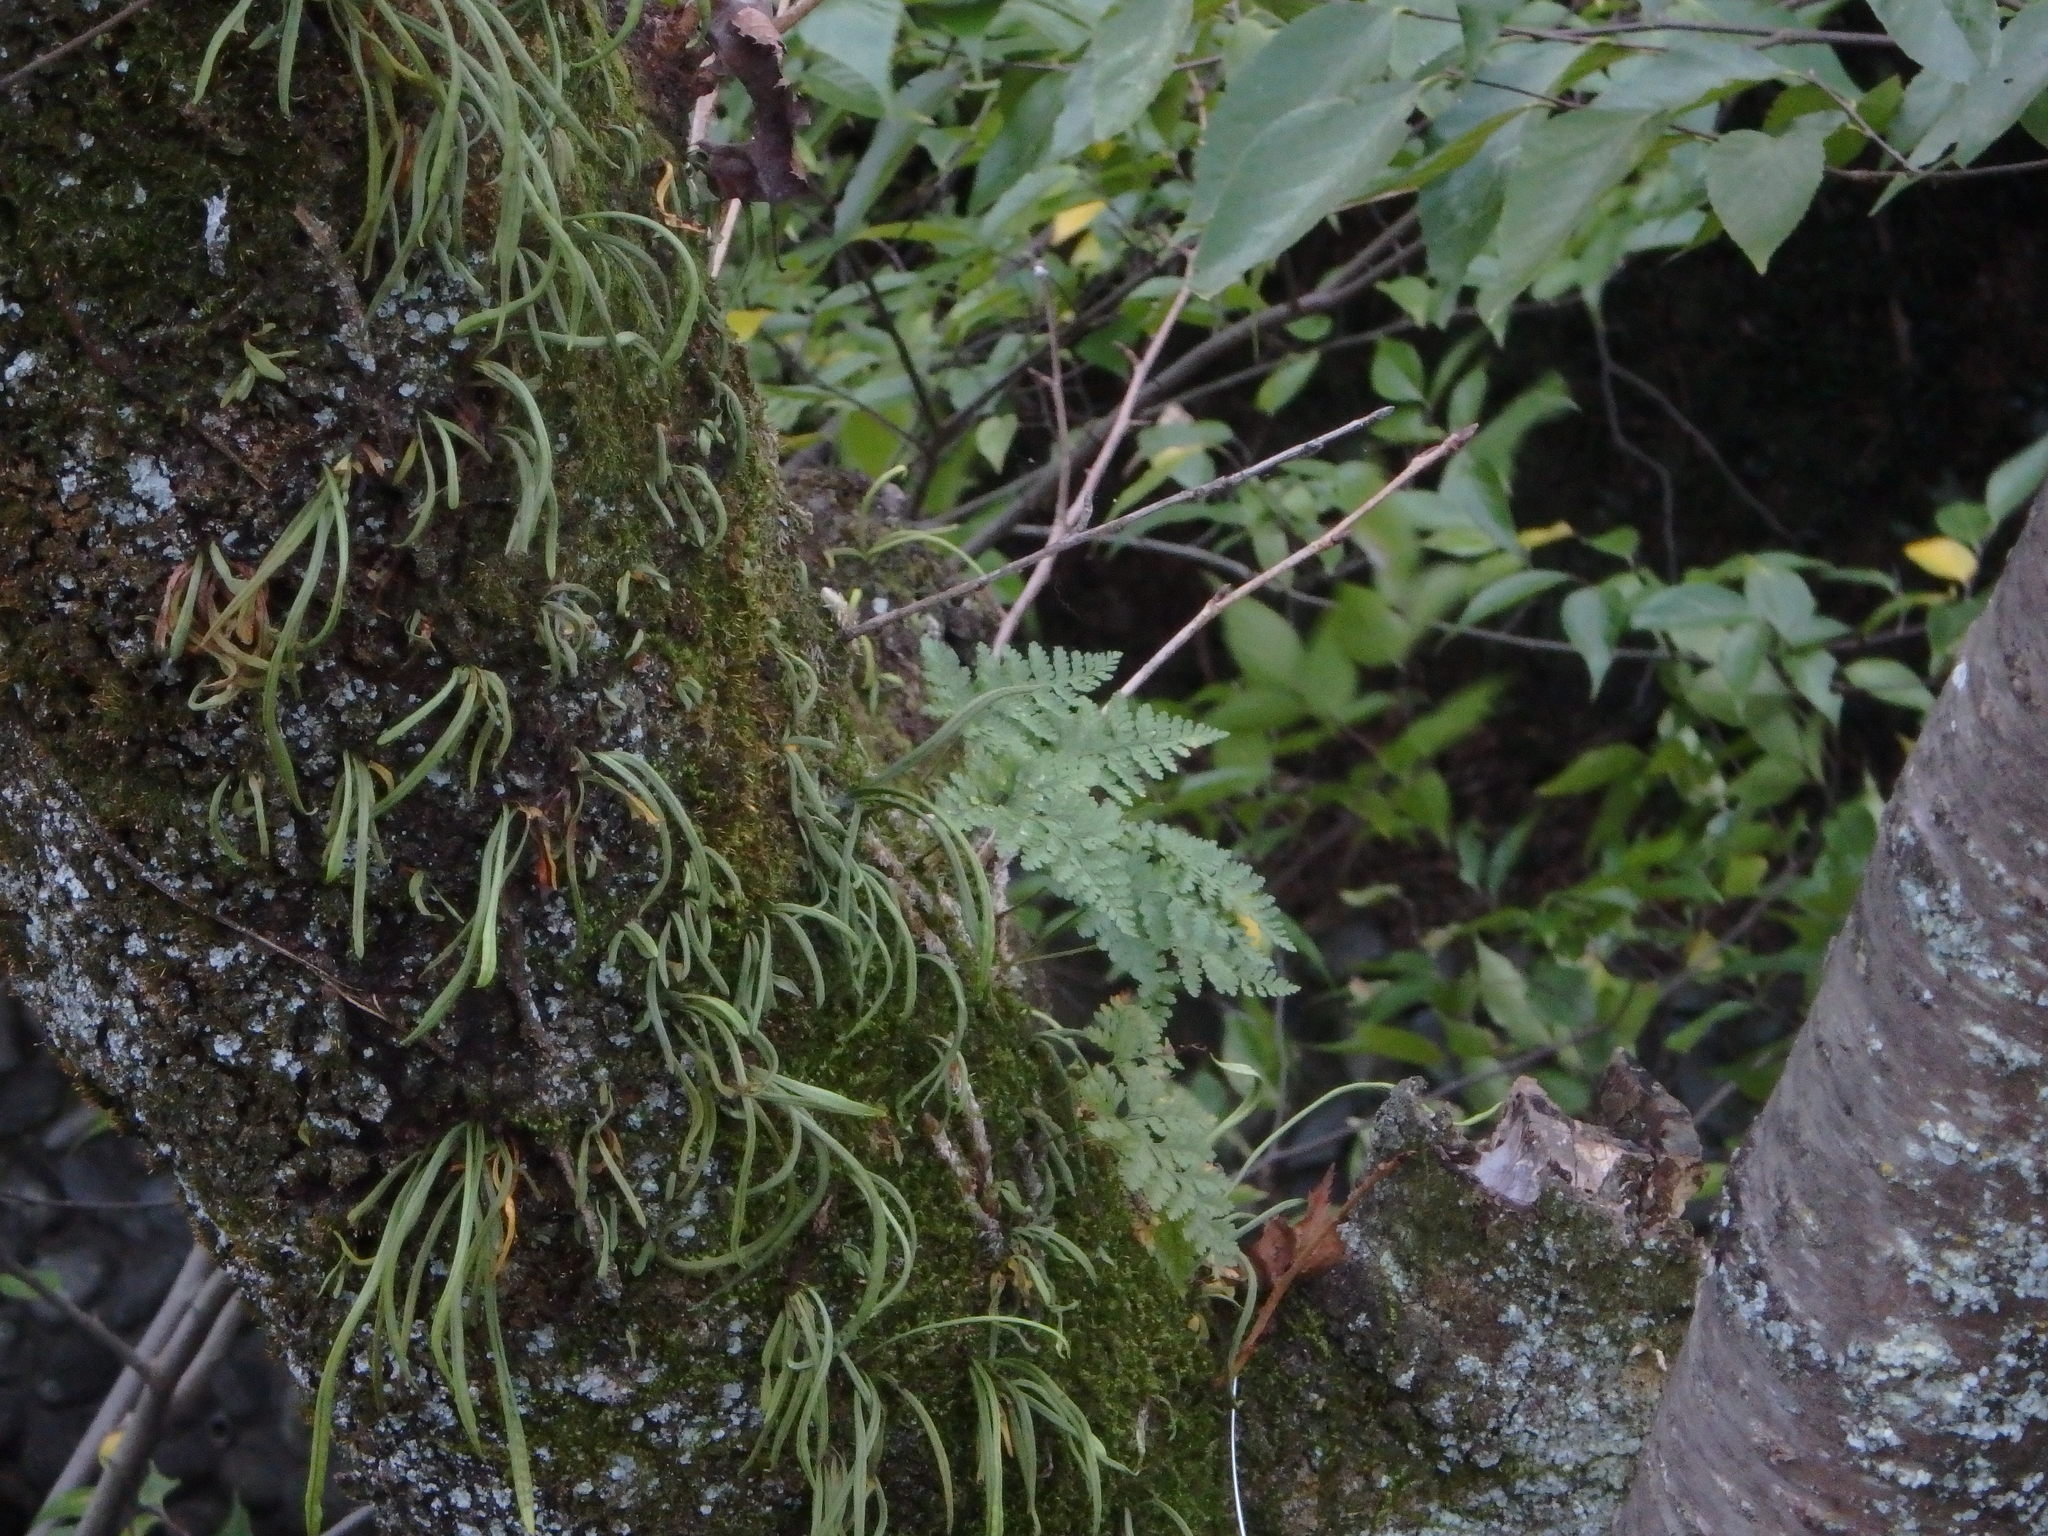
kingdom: Plantae
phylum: Tracheophyta
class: Polypodiopsida
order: Polypodiales
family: Davalliaceae
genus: Davallia
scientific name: Davallia mariesii
